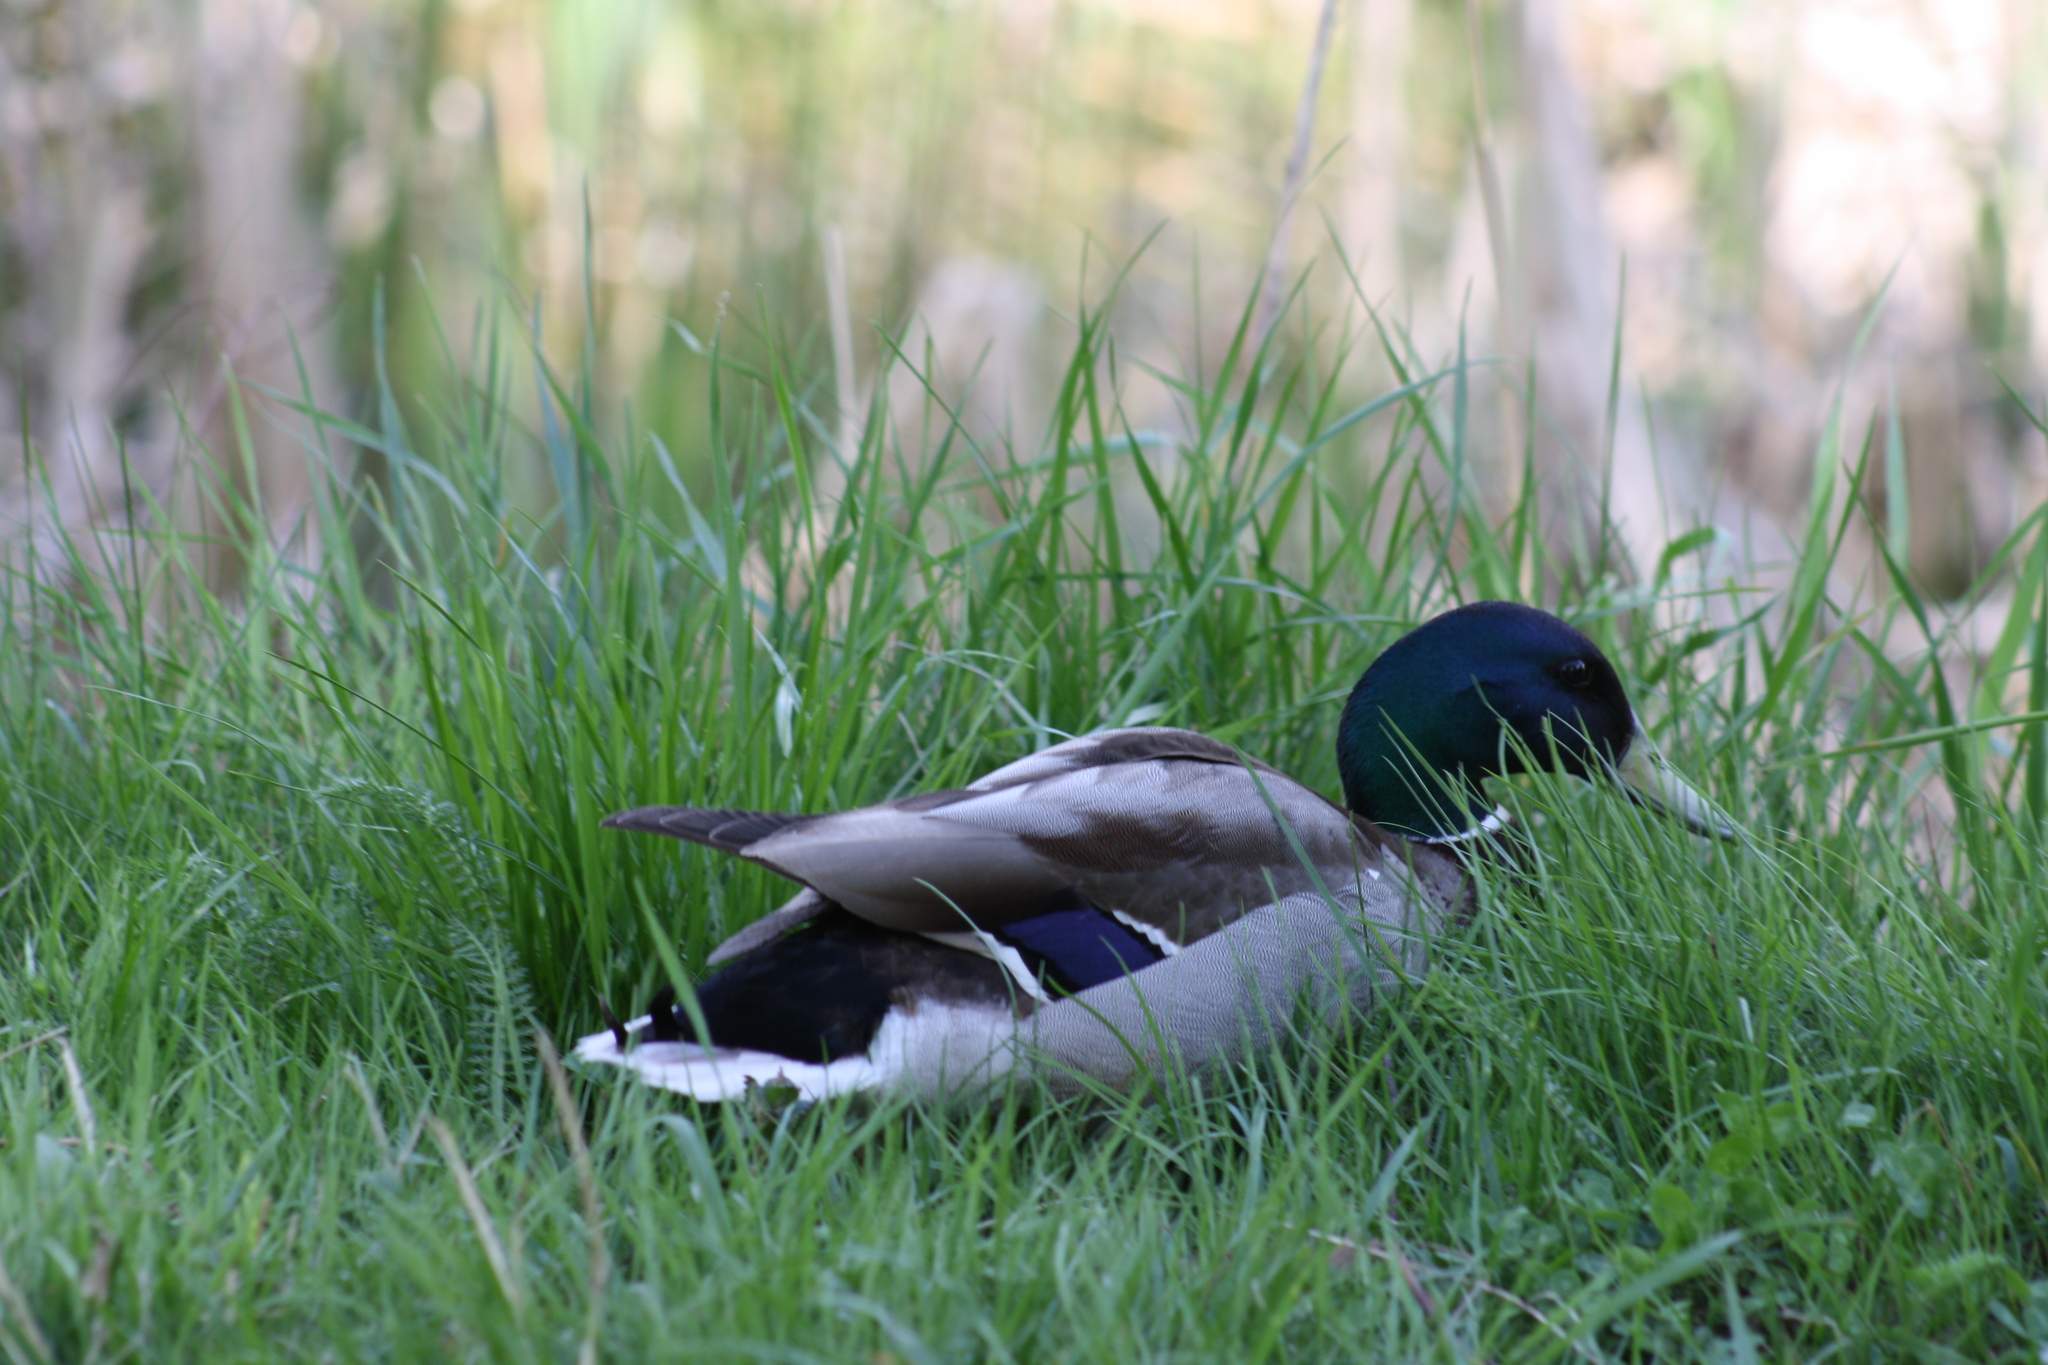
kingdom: Animalia
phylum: Chordata
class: Aves
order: Anseriformes
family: Anatidae
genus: Anas
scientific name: Anas platyrhynchos
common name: Mallard
